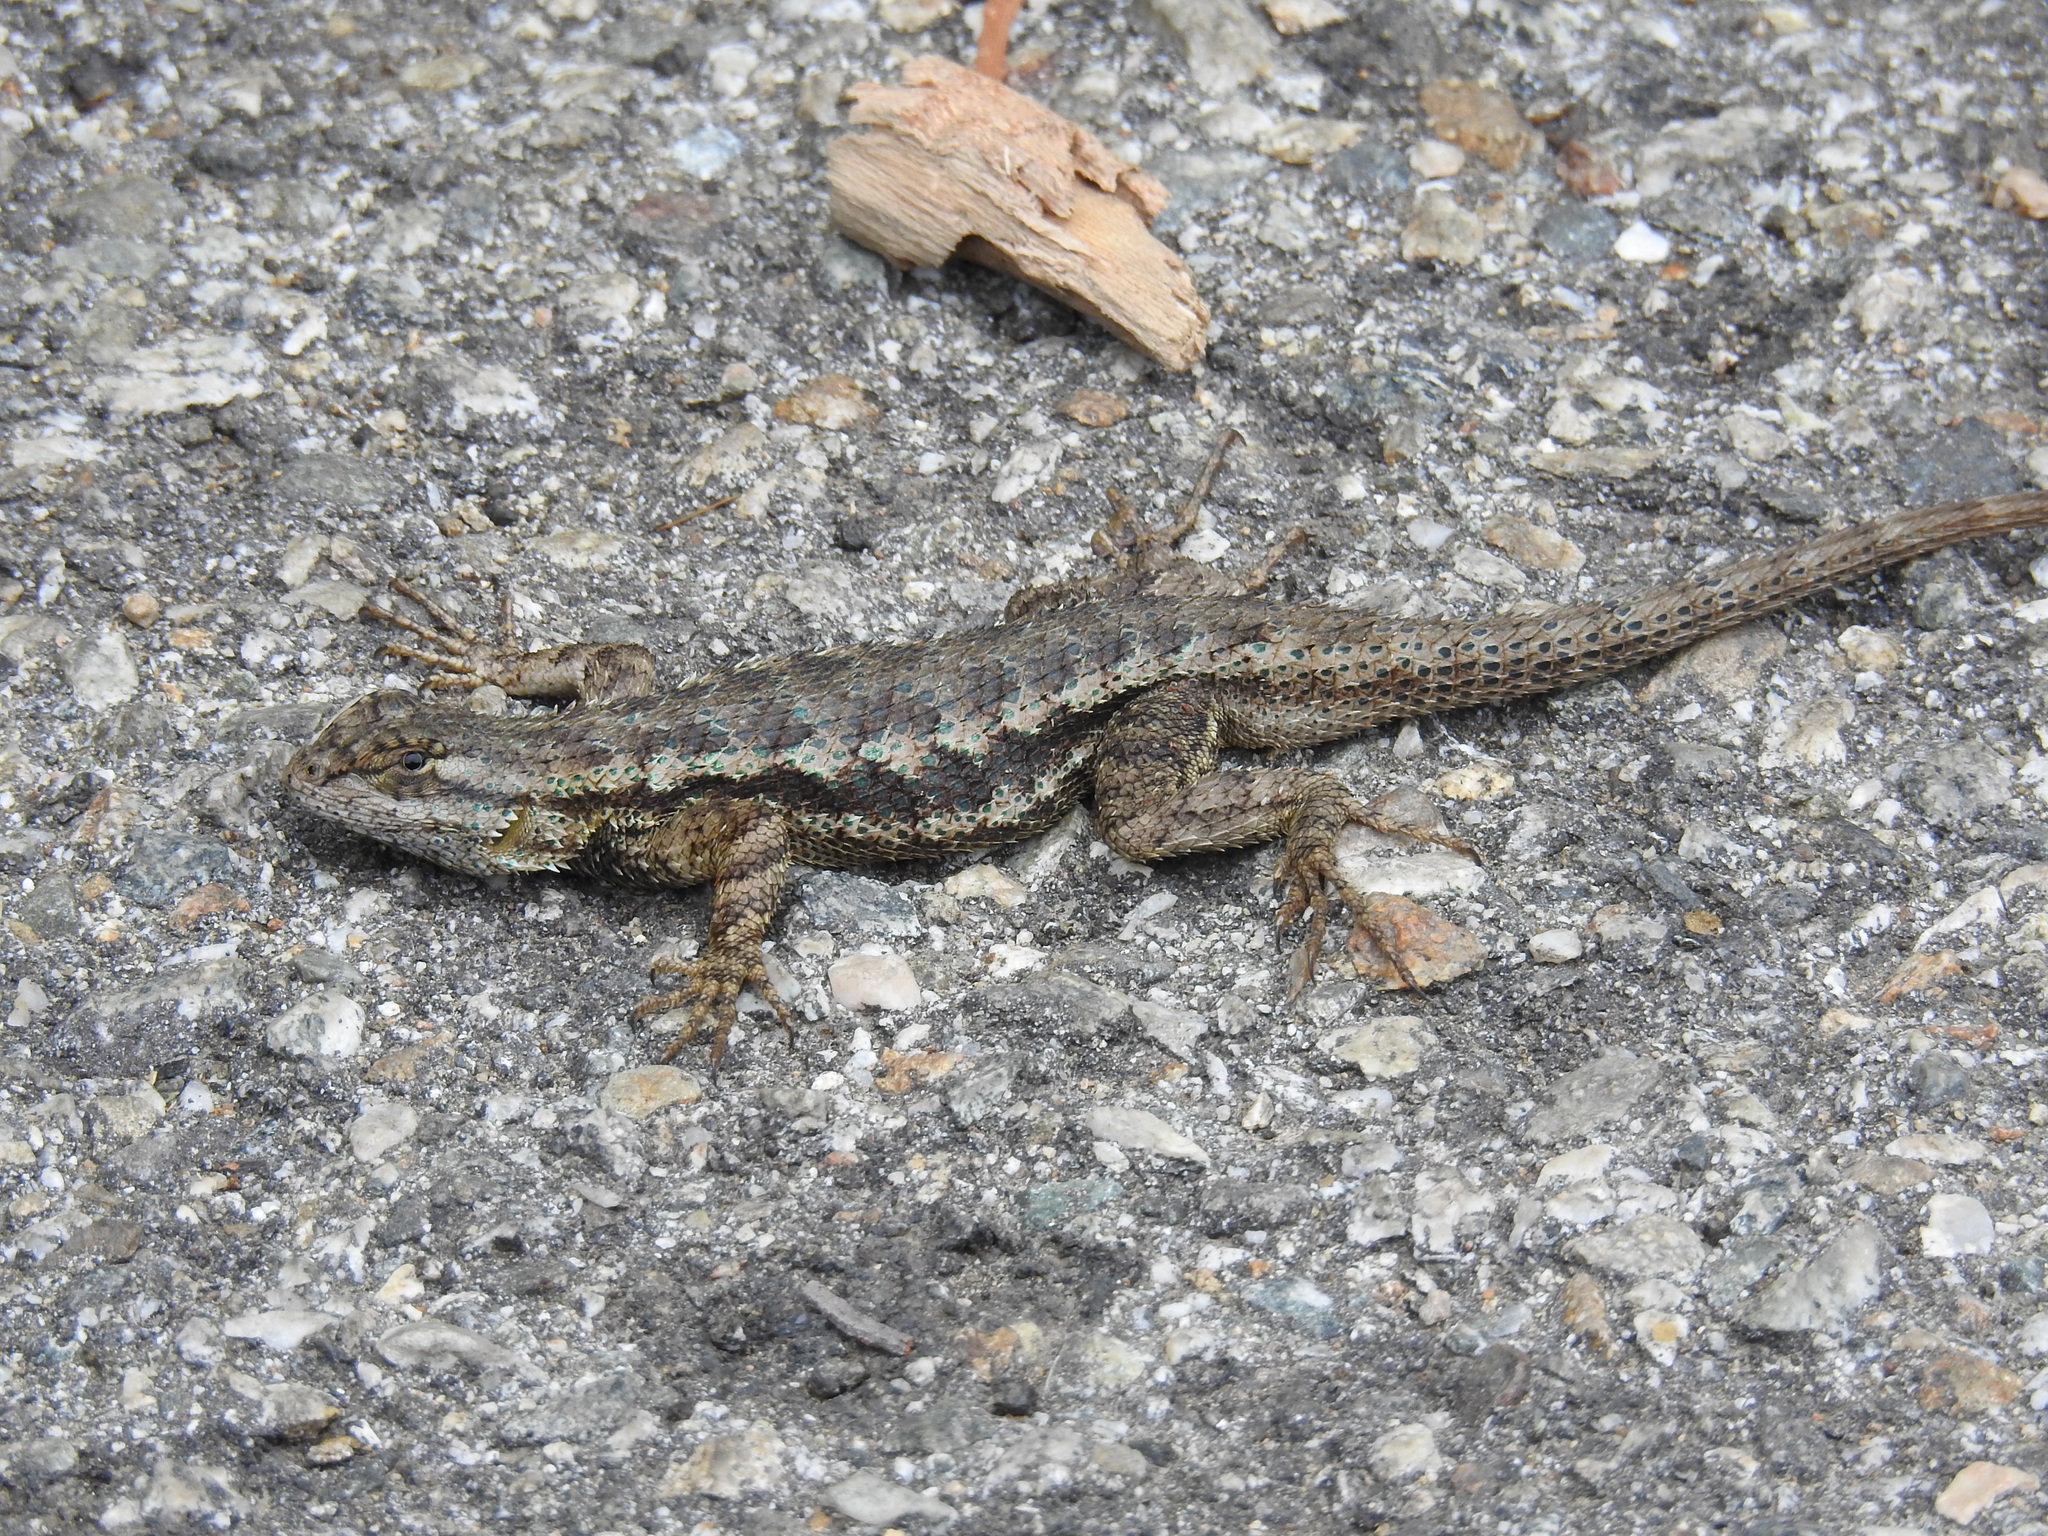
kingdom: Animalia
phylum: Chordata
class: Squamata
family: Phrynosomatidae
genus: Sceloporus
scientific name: Sceloporus occidentalis
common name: Western fence lizard
